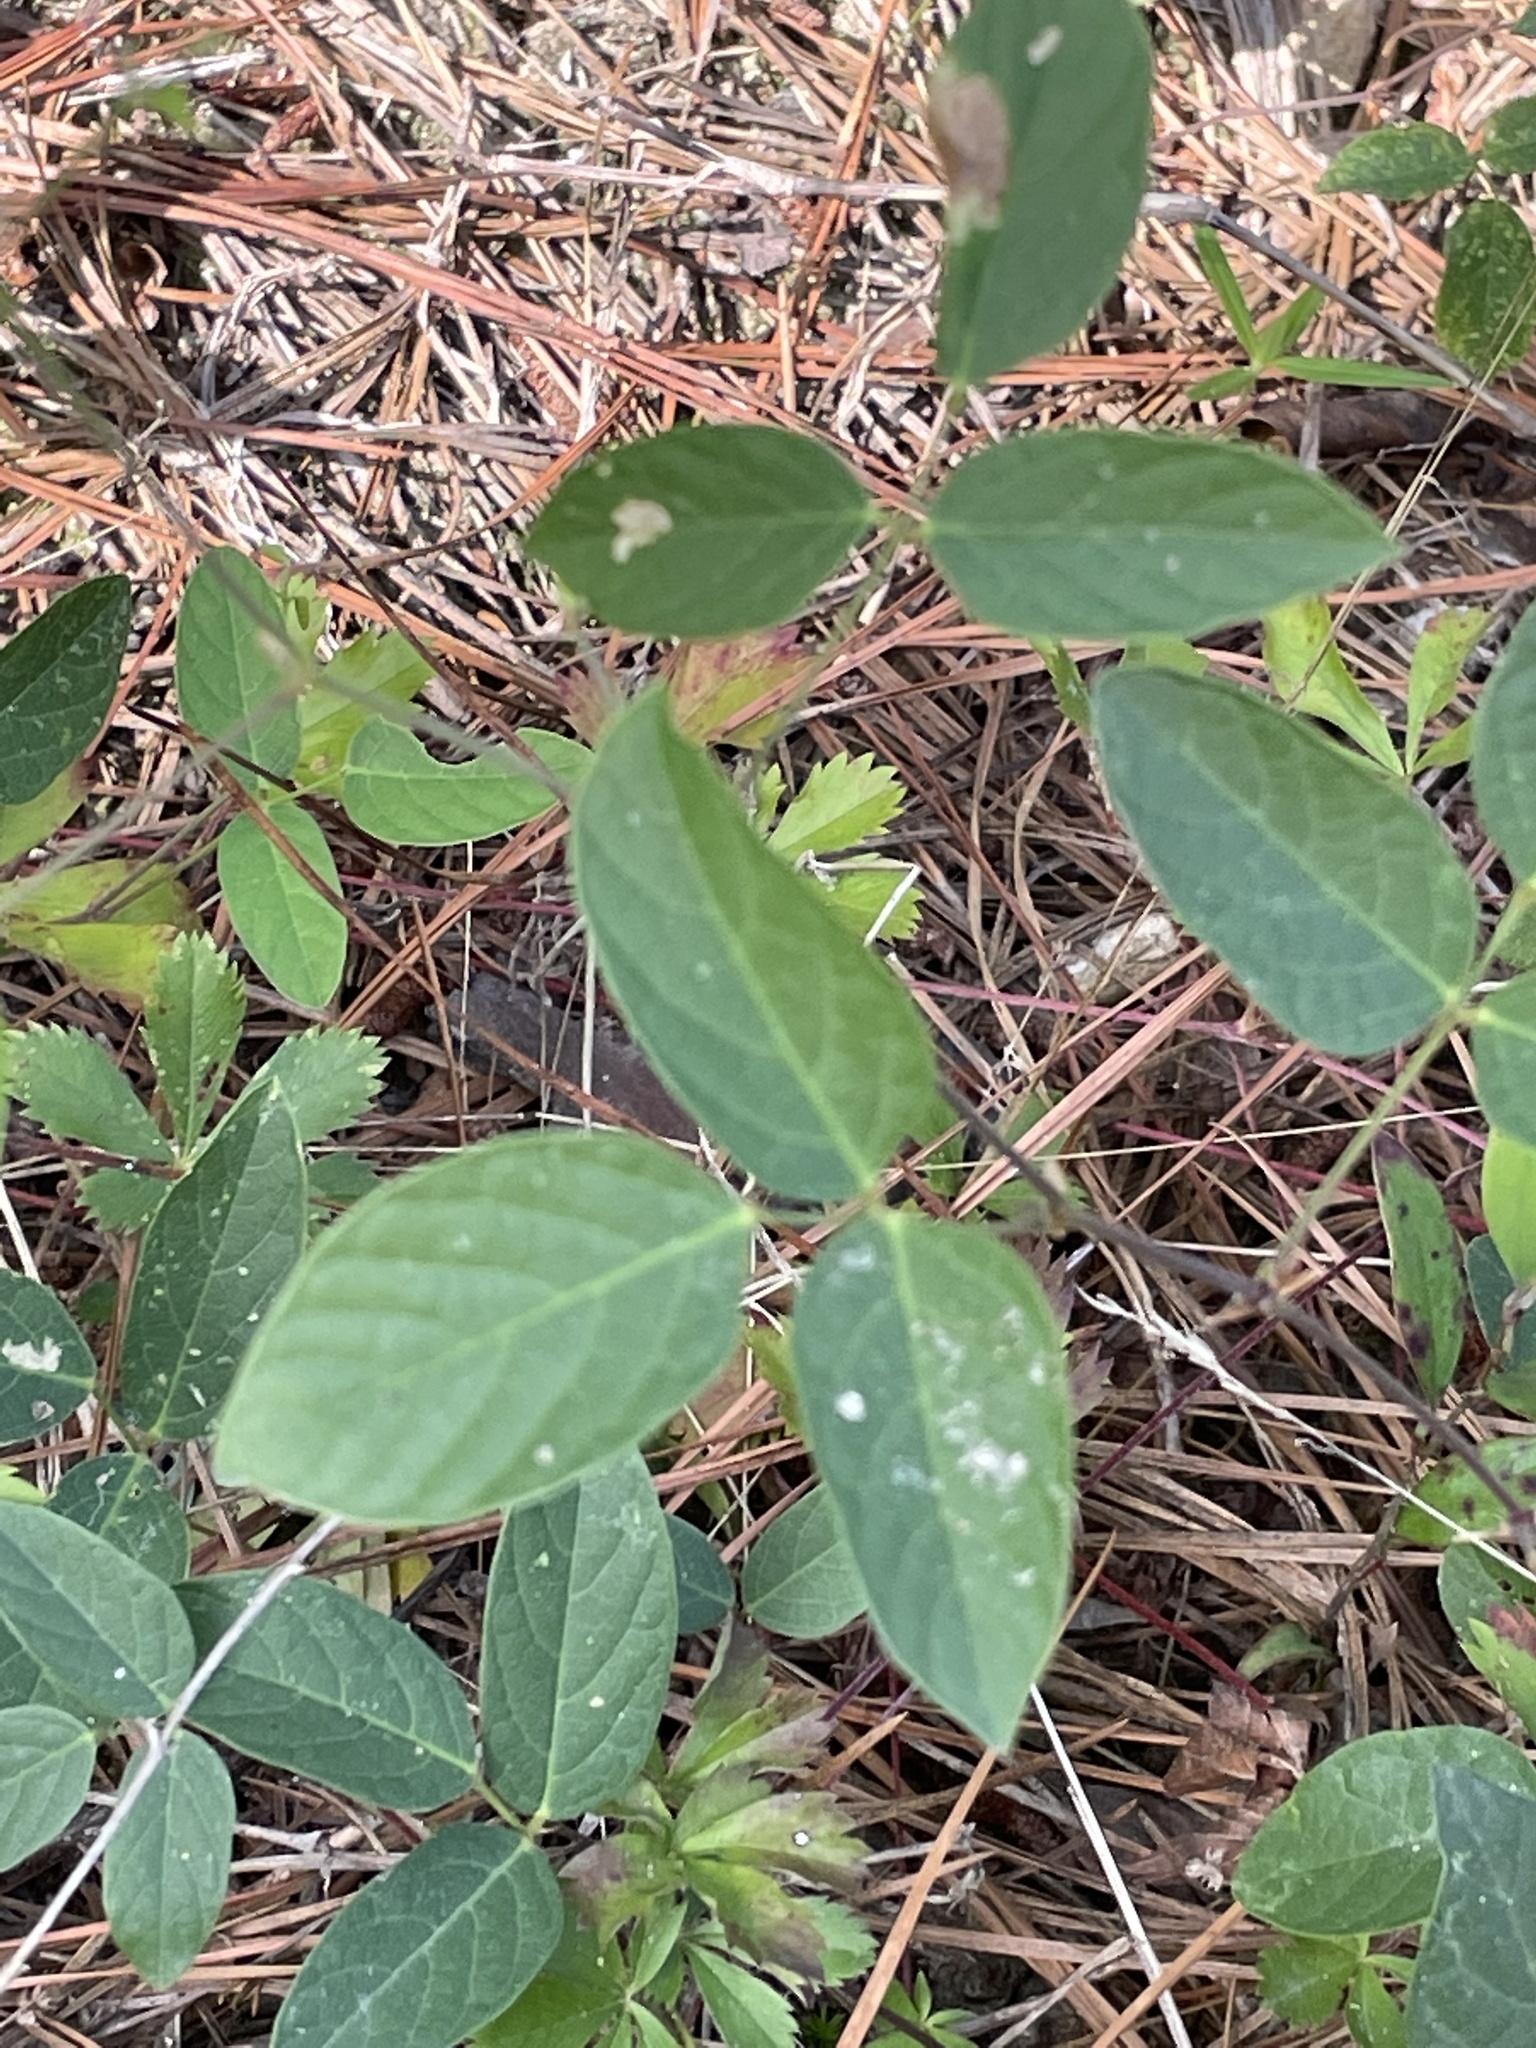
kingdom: Plantae
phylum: Tracheophyta
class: Magnoliopsida
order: Fabales
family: Fabaceae
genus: Centrosema
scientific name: Centrosema virginianum
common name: Butterfly-pea
